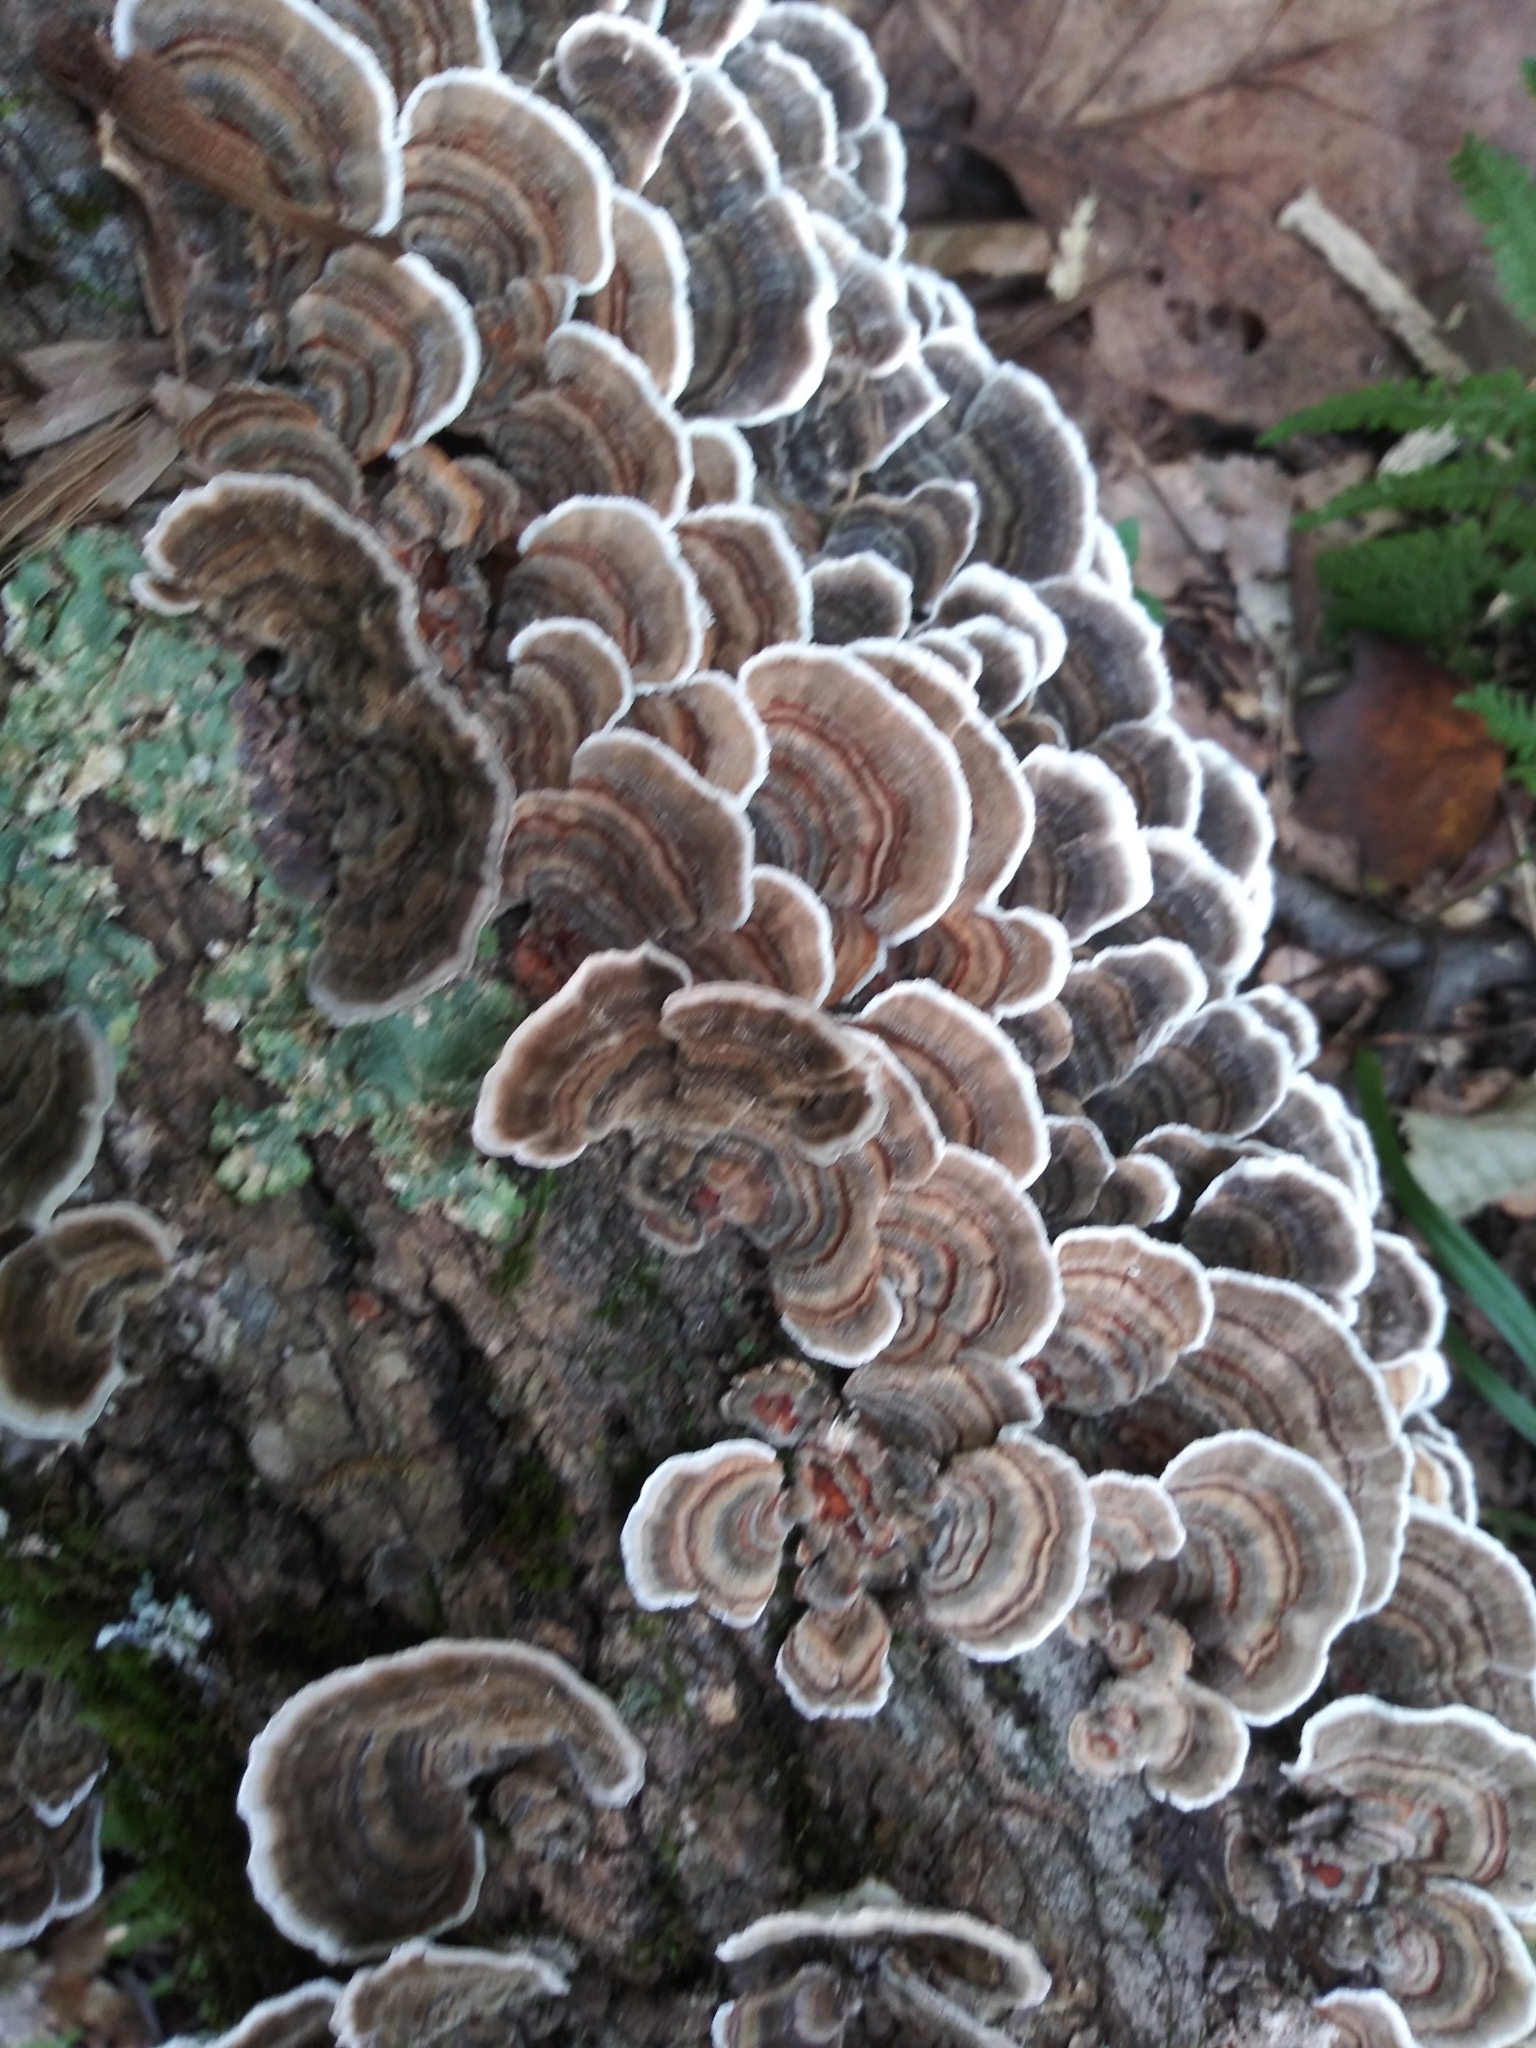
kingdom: Fungi
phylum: Basidiomycota
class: Agaricomycetes
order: Polyporales
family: Polyporaceae
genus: Trametes
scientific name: Trametes versicolor
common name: Turkeytail
